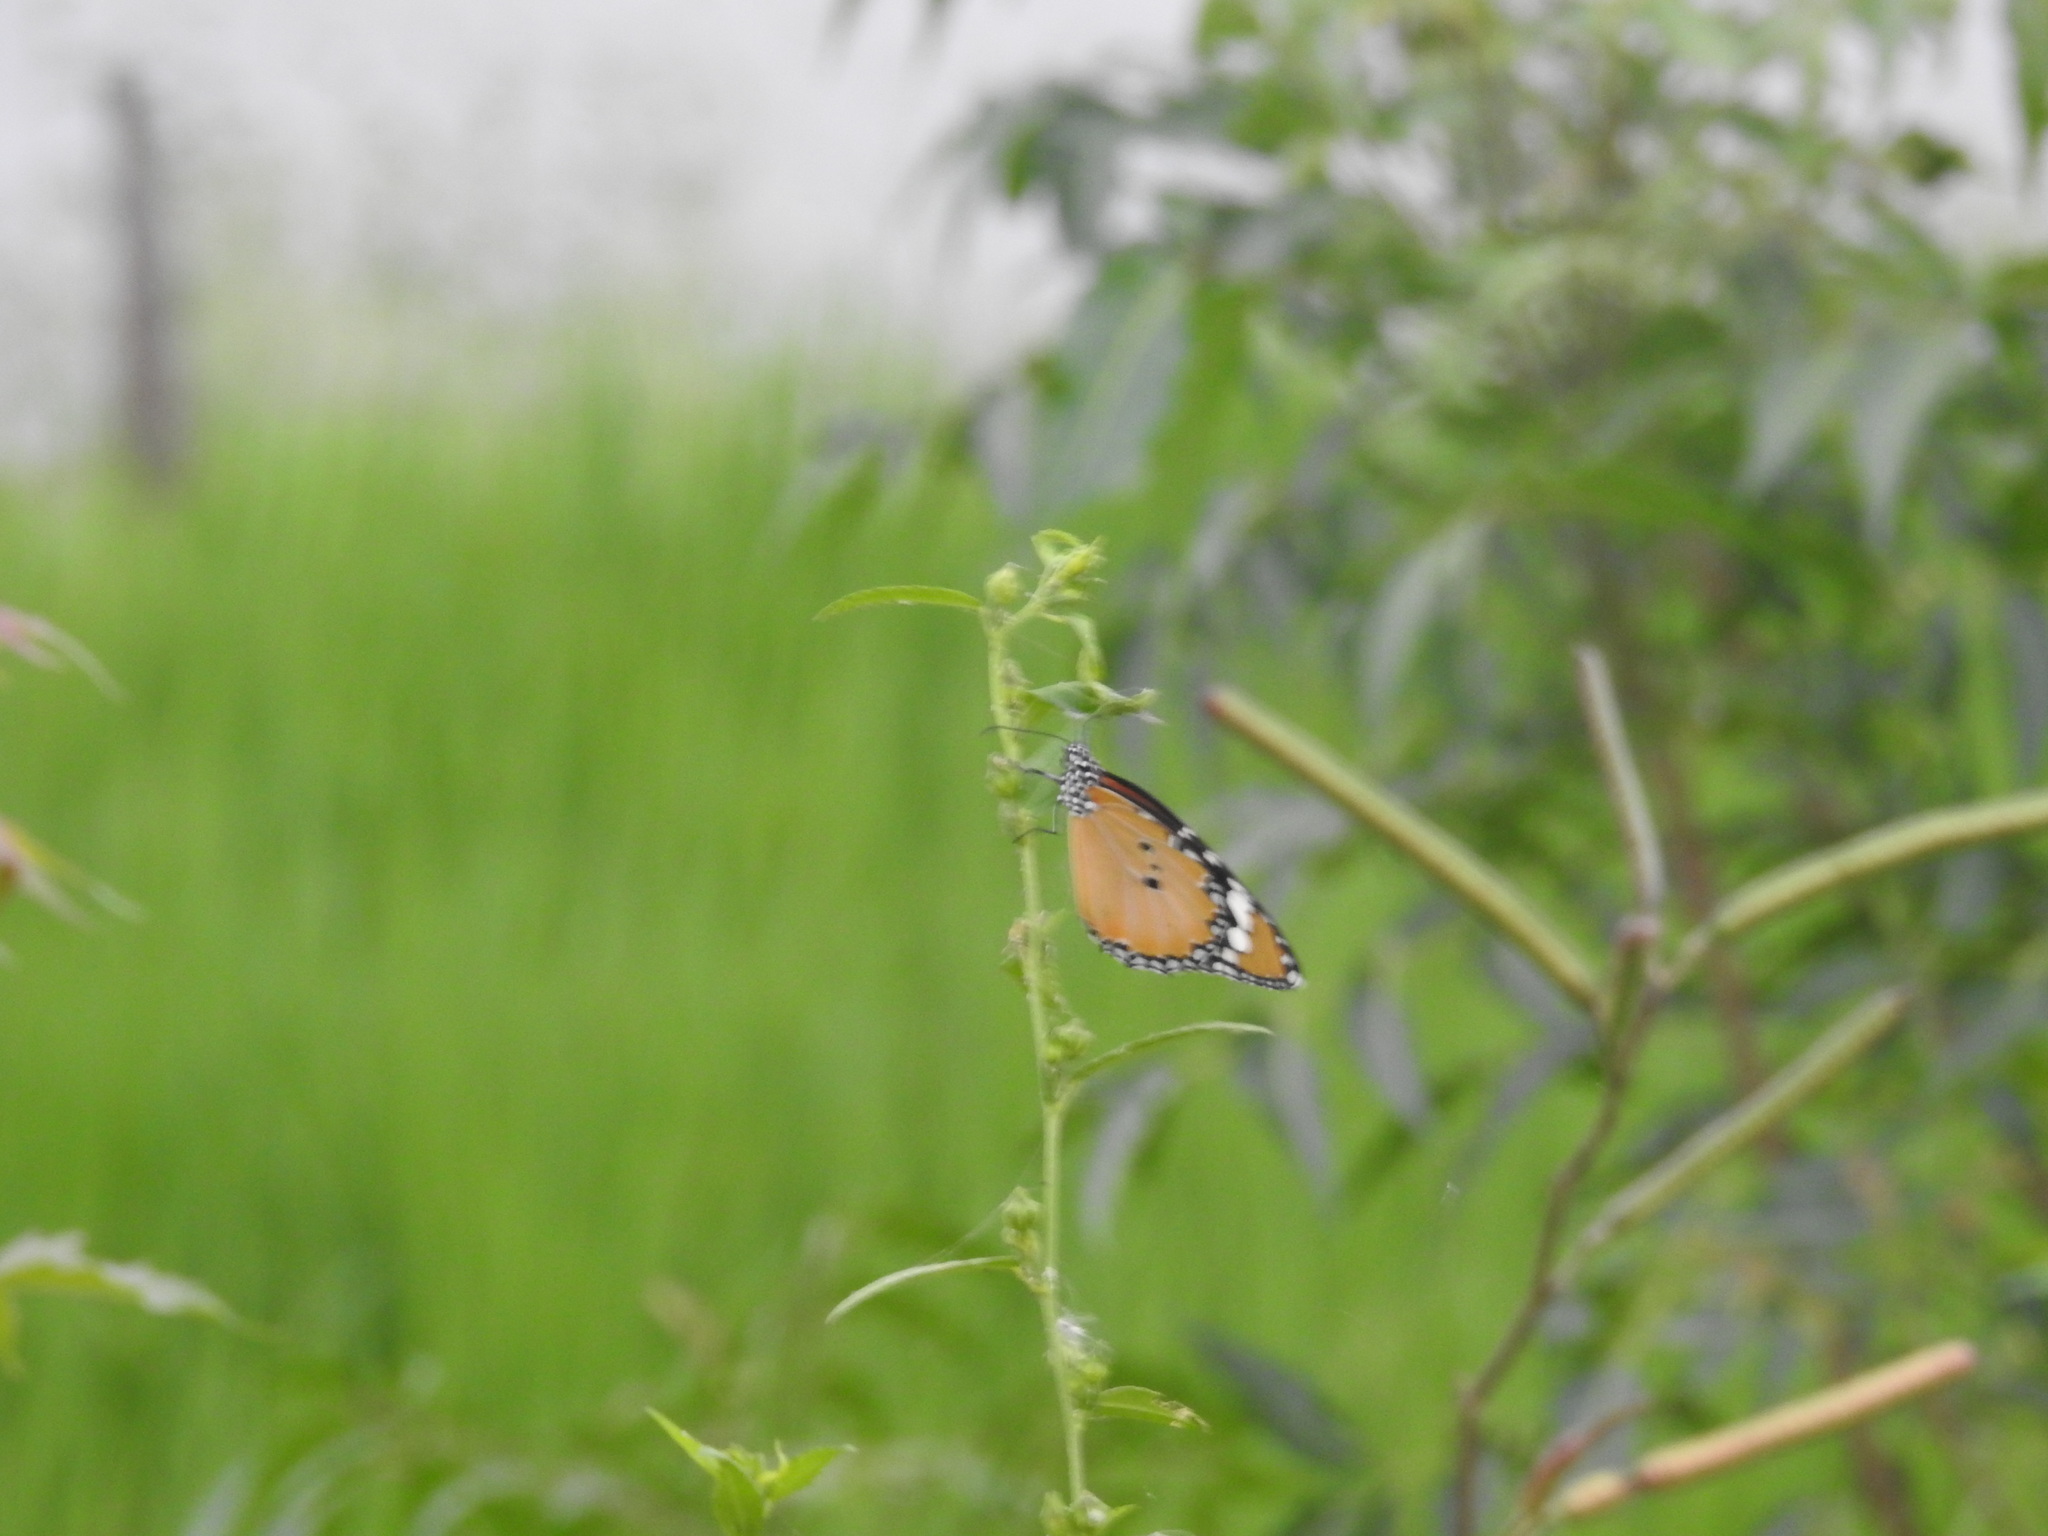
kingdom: Animalia
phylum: Arthropoda
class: Insecta
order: Lepidoptera
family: Nymphalidae
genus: Danaus
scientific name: Danaus chrysippus
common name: Plain tiger
